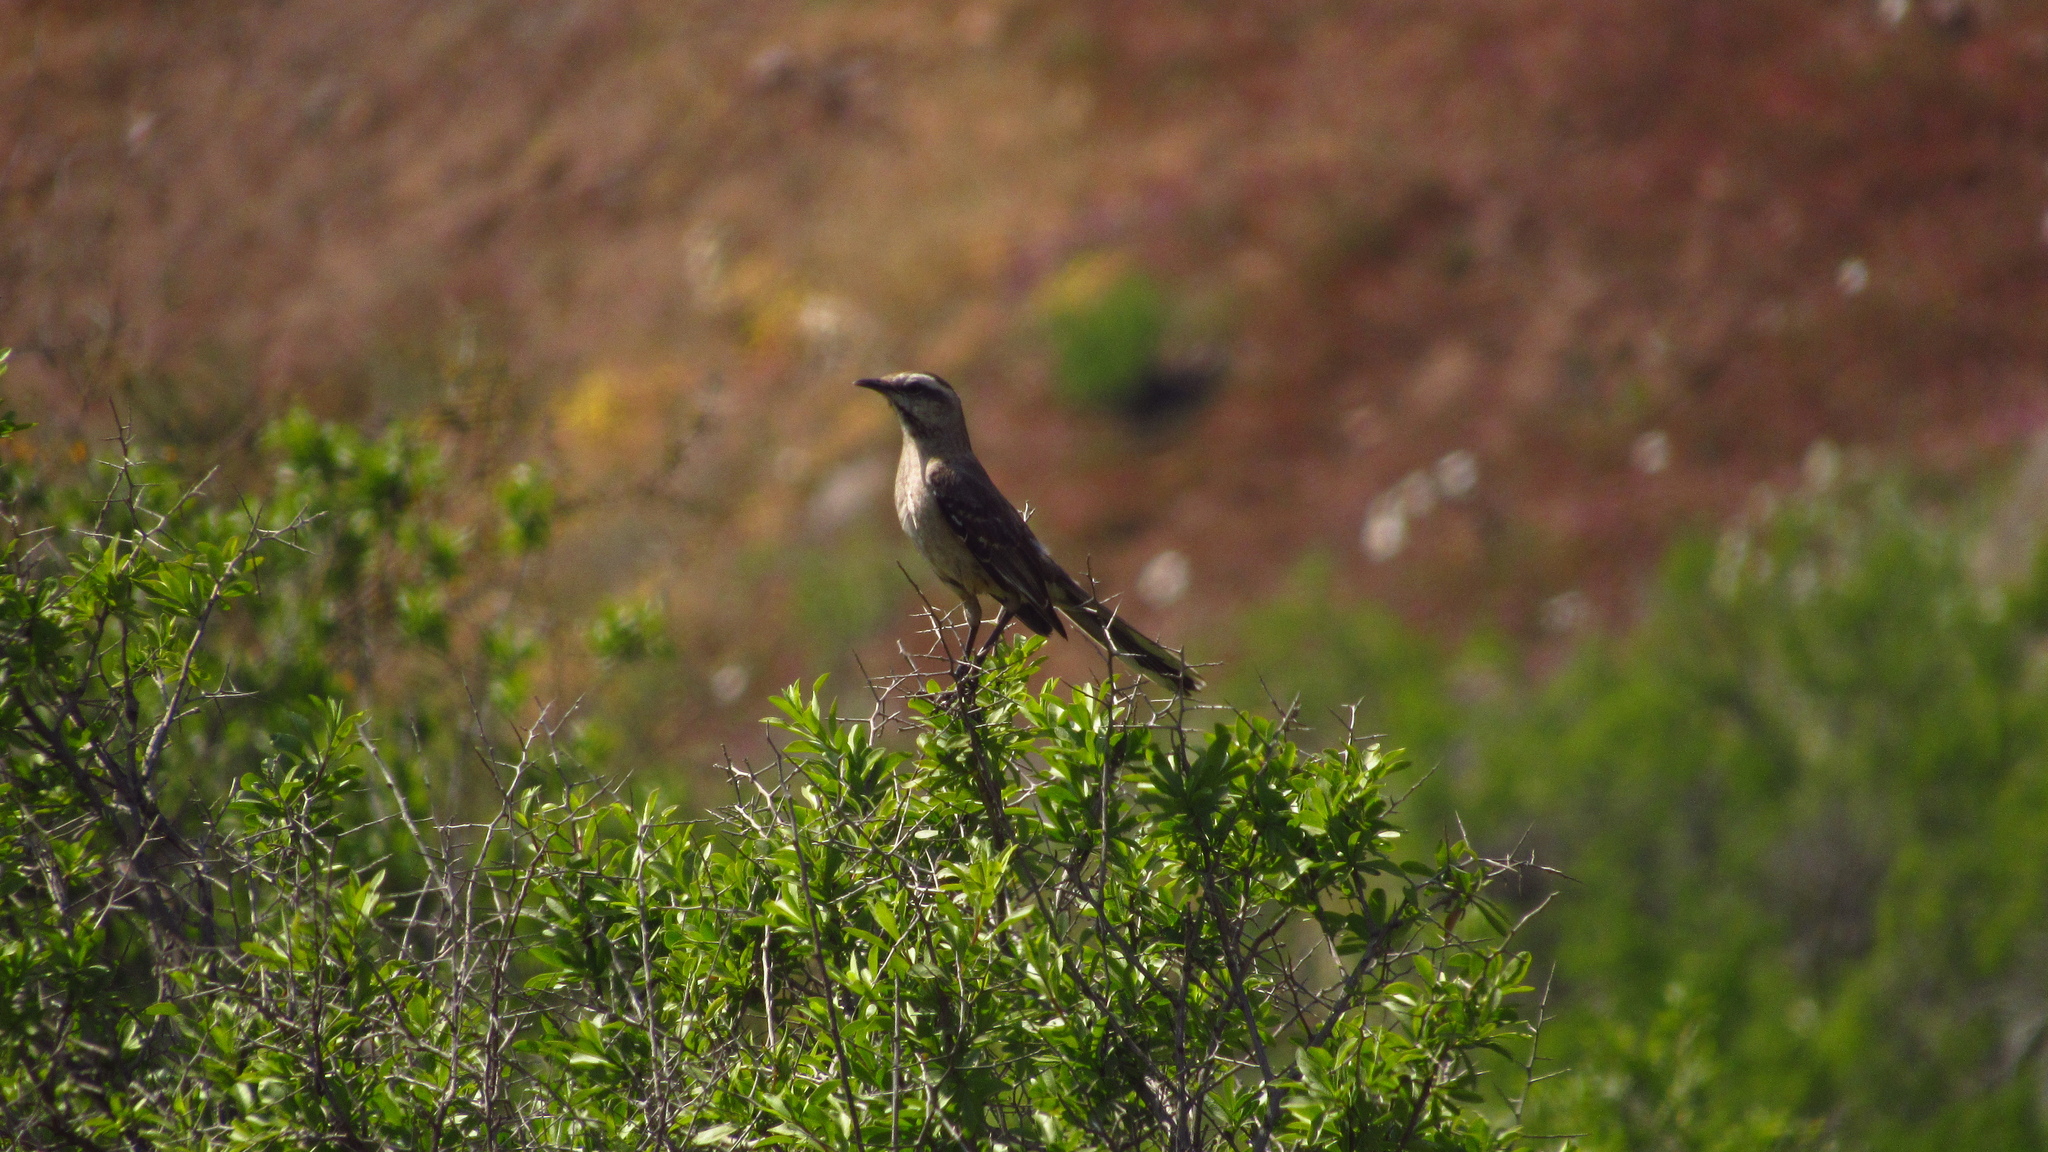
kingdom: Animalia
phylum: Chordata
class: Aves
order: Passeriformes
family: Mimidae
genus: Mimus
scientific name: Mimus thenca
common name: Chilean mockingbird
